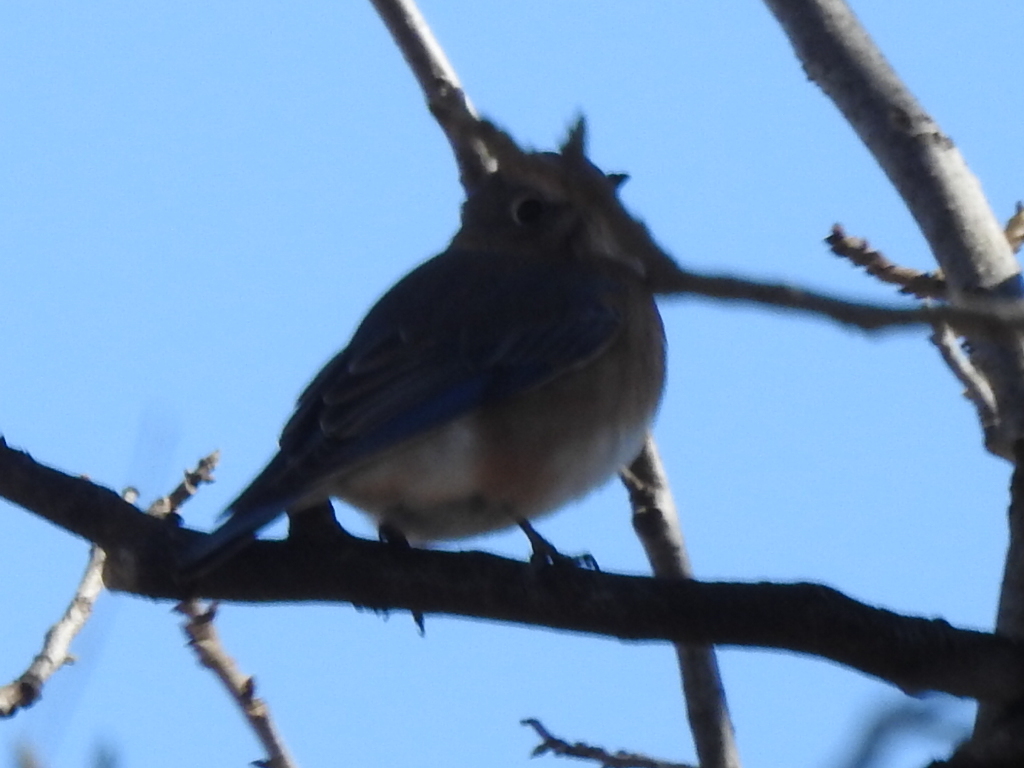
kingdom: Animalia
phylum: Chordata
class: Aves
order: Passeriformes
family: Turdidae
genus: Sialia
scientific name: Sialia sialis
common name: Eastern bluebird
